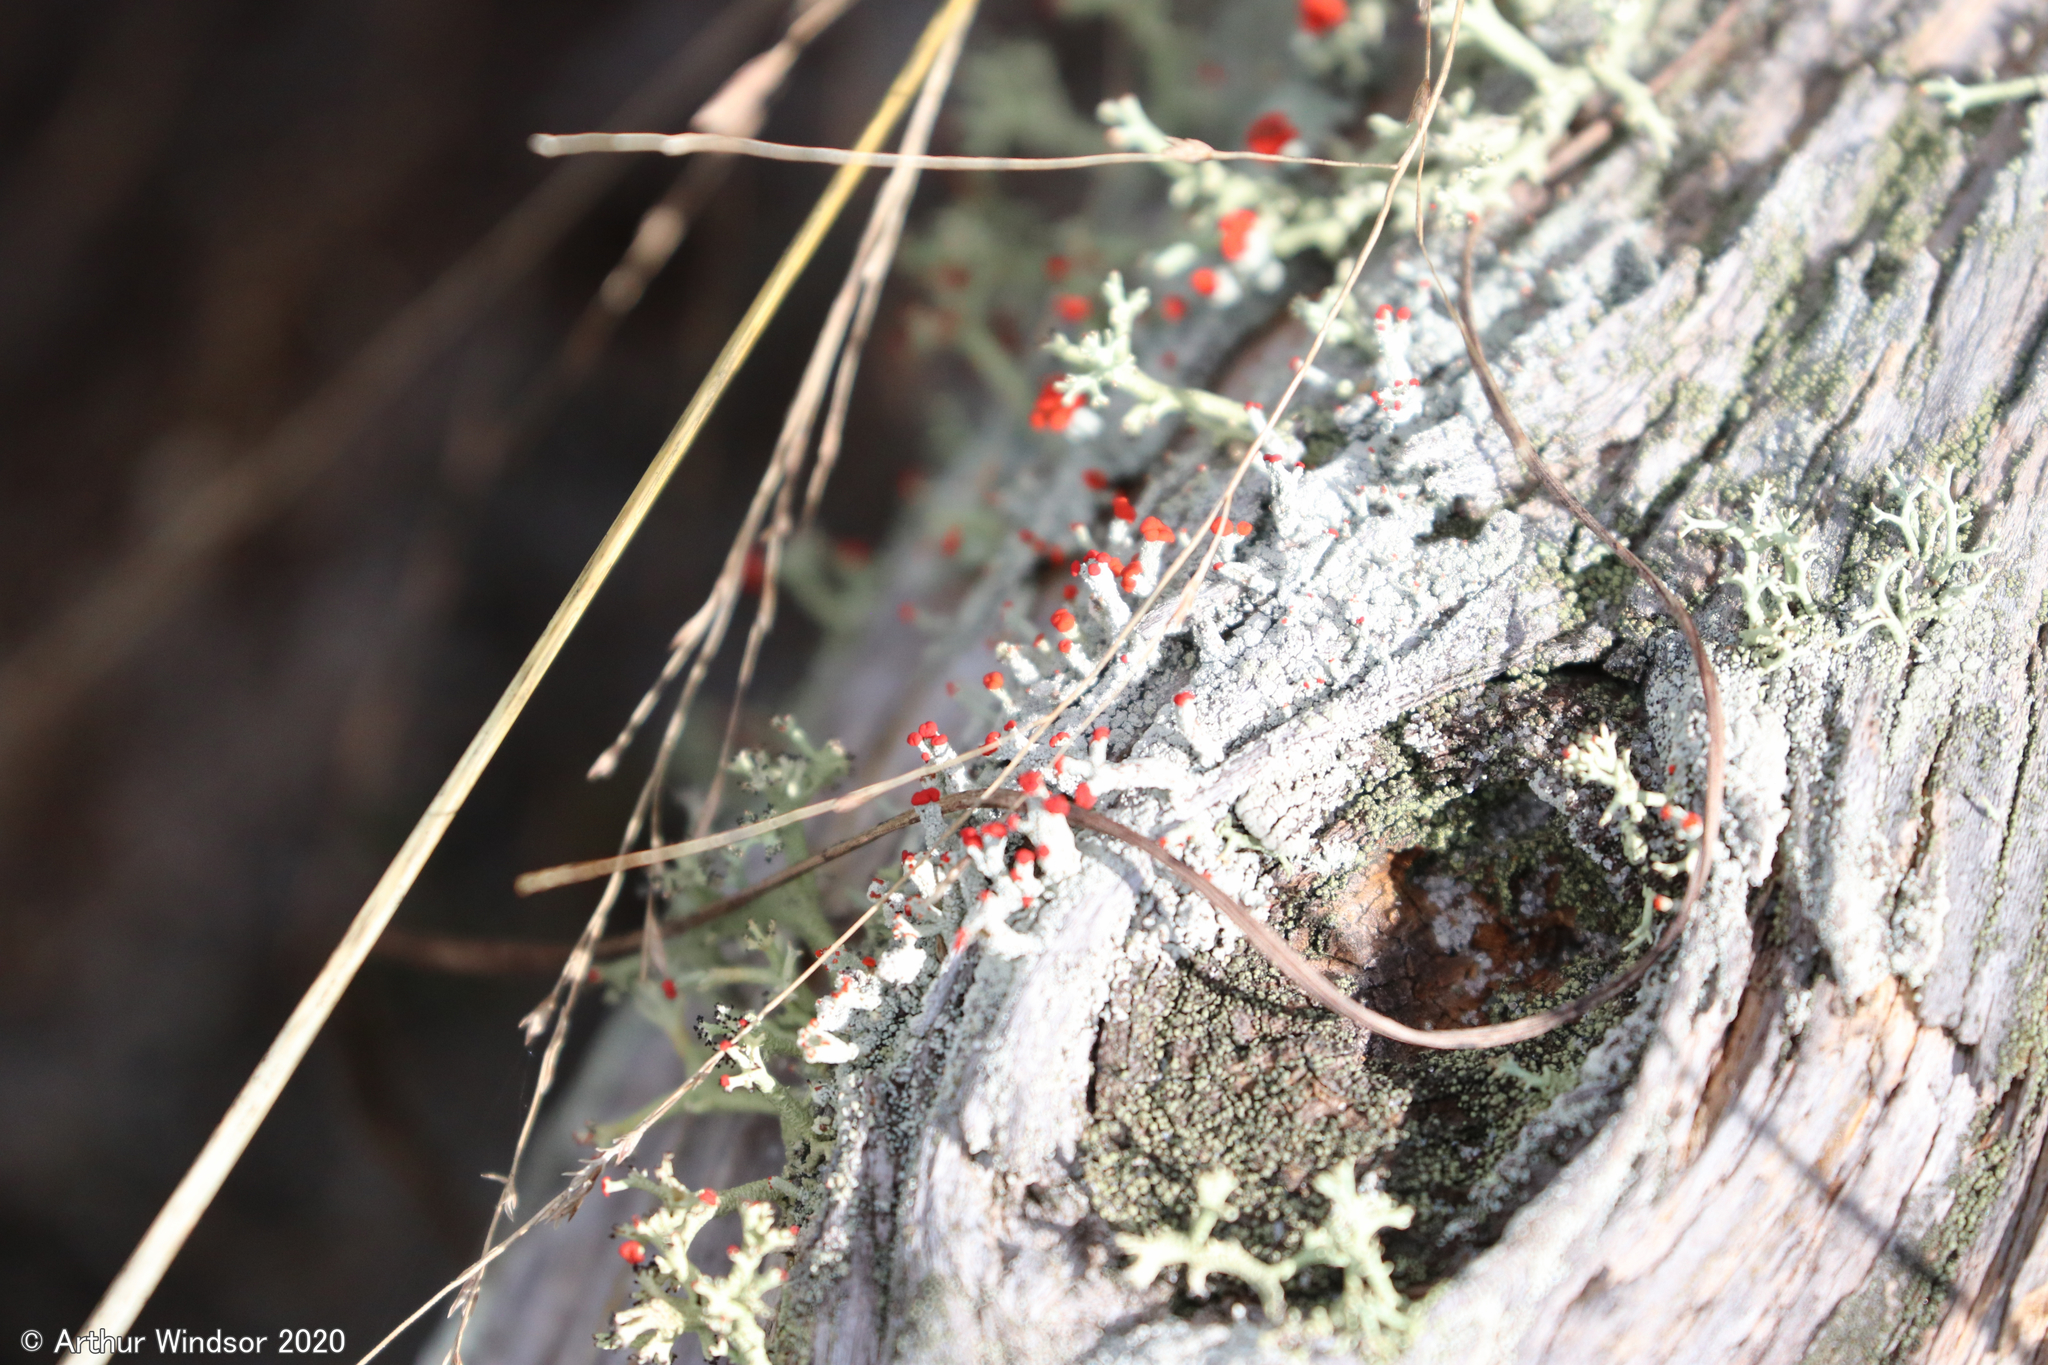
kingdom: Fungi
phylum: Ascomycota
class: Lecanoromycetes
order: Lecanorales
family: Cladoniaceae
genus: Cladonia
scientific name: Cladonia ravenelii
